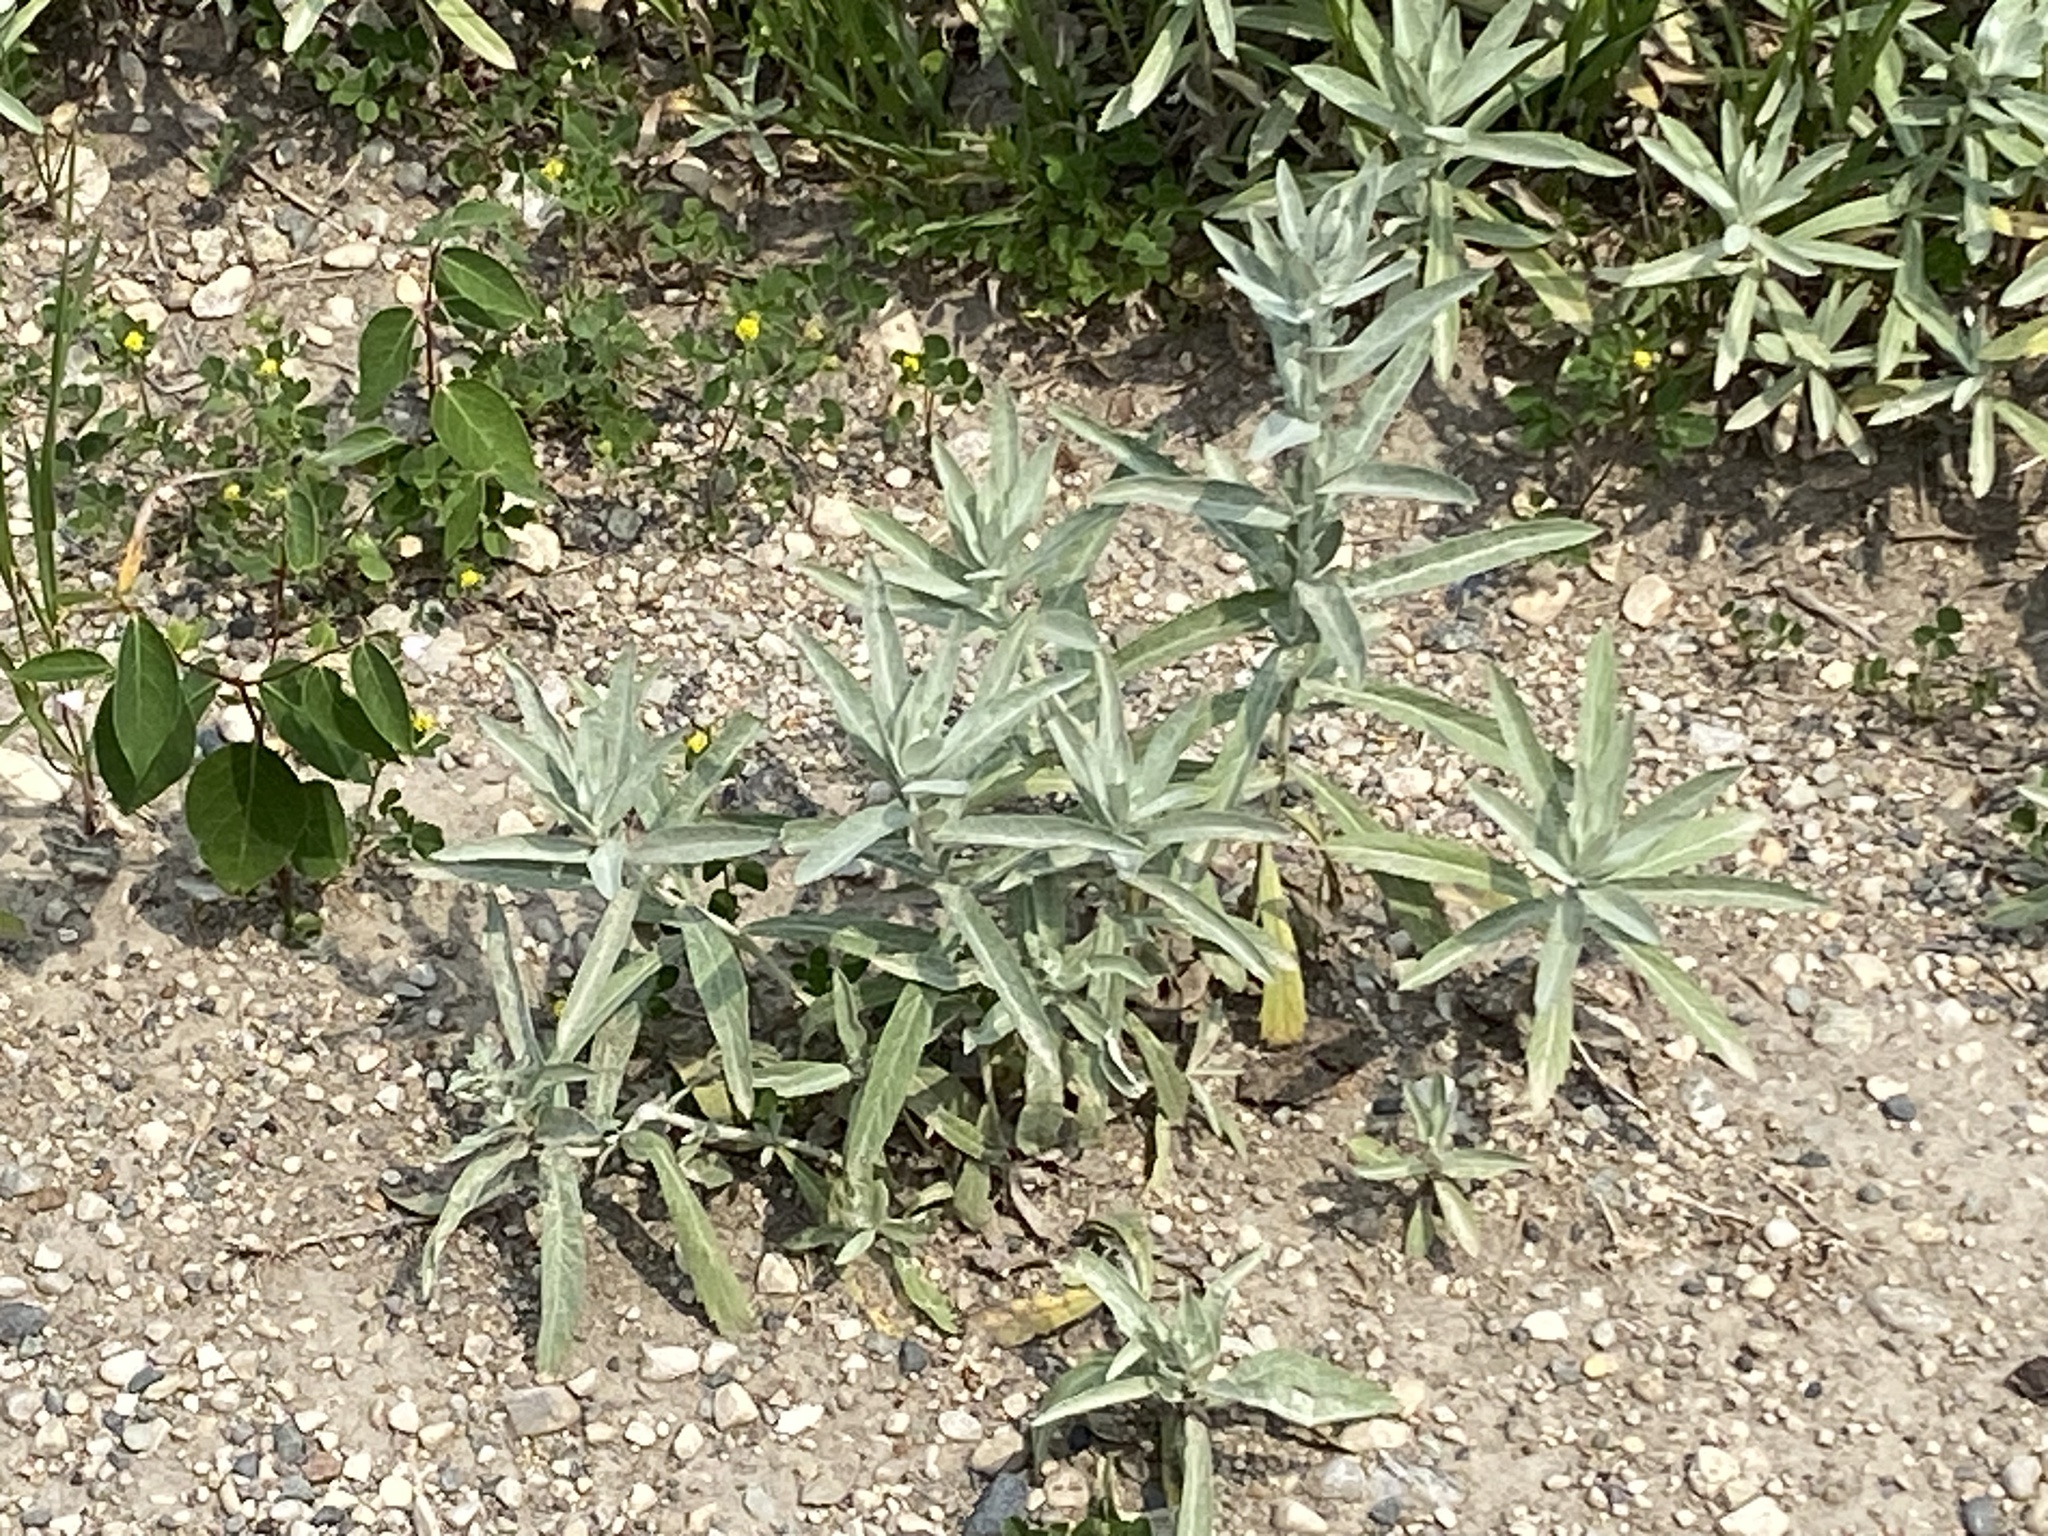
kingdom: Plantae
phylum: Tracheophyta
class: Magnoliopsida
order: Asterales
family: Asteraceae
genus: Artemisia
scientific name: Artemisia ludoviciana
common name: Western mugwort
